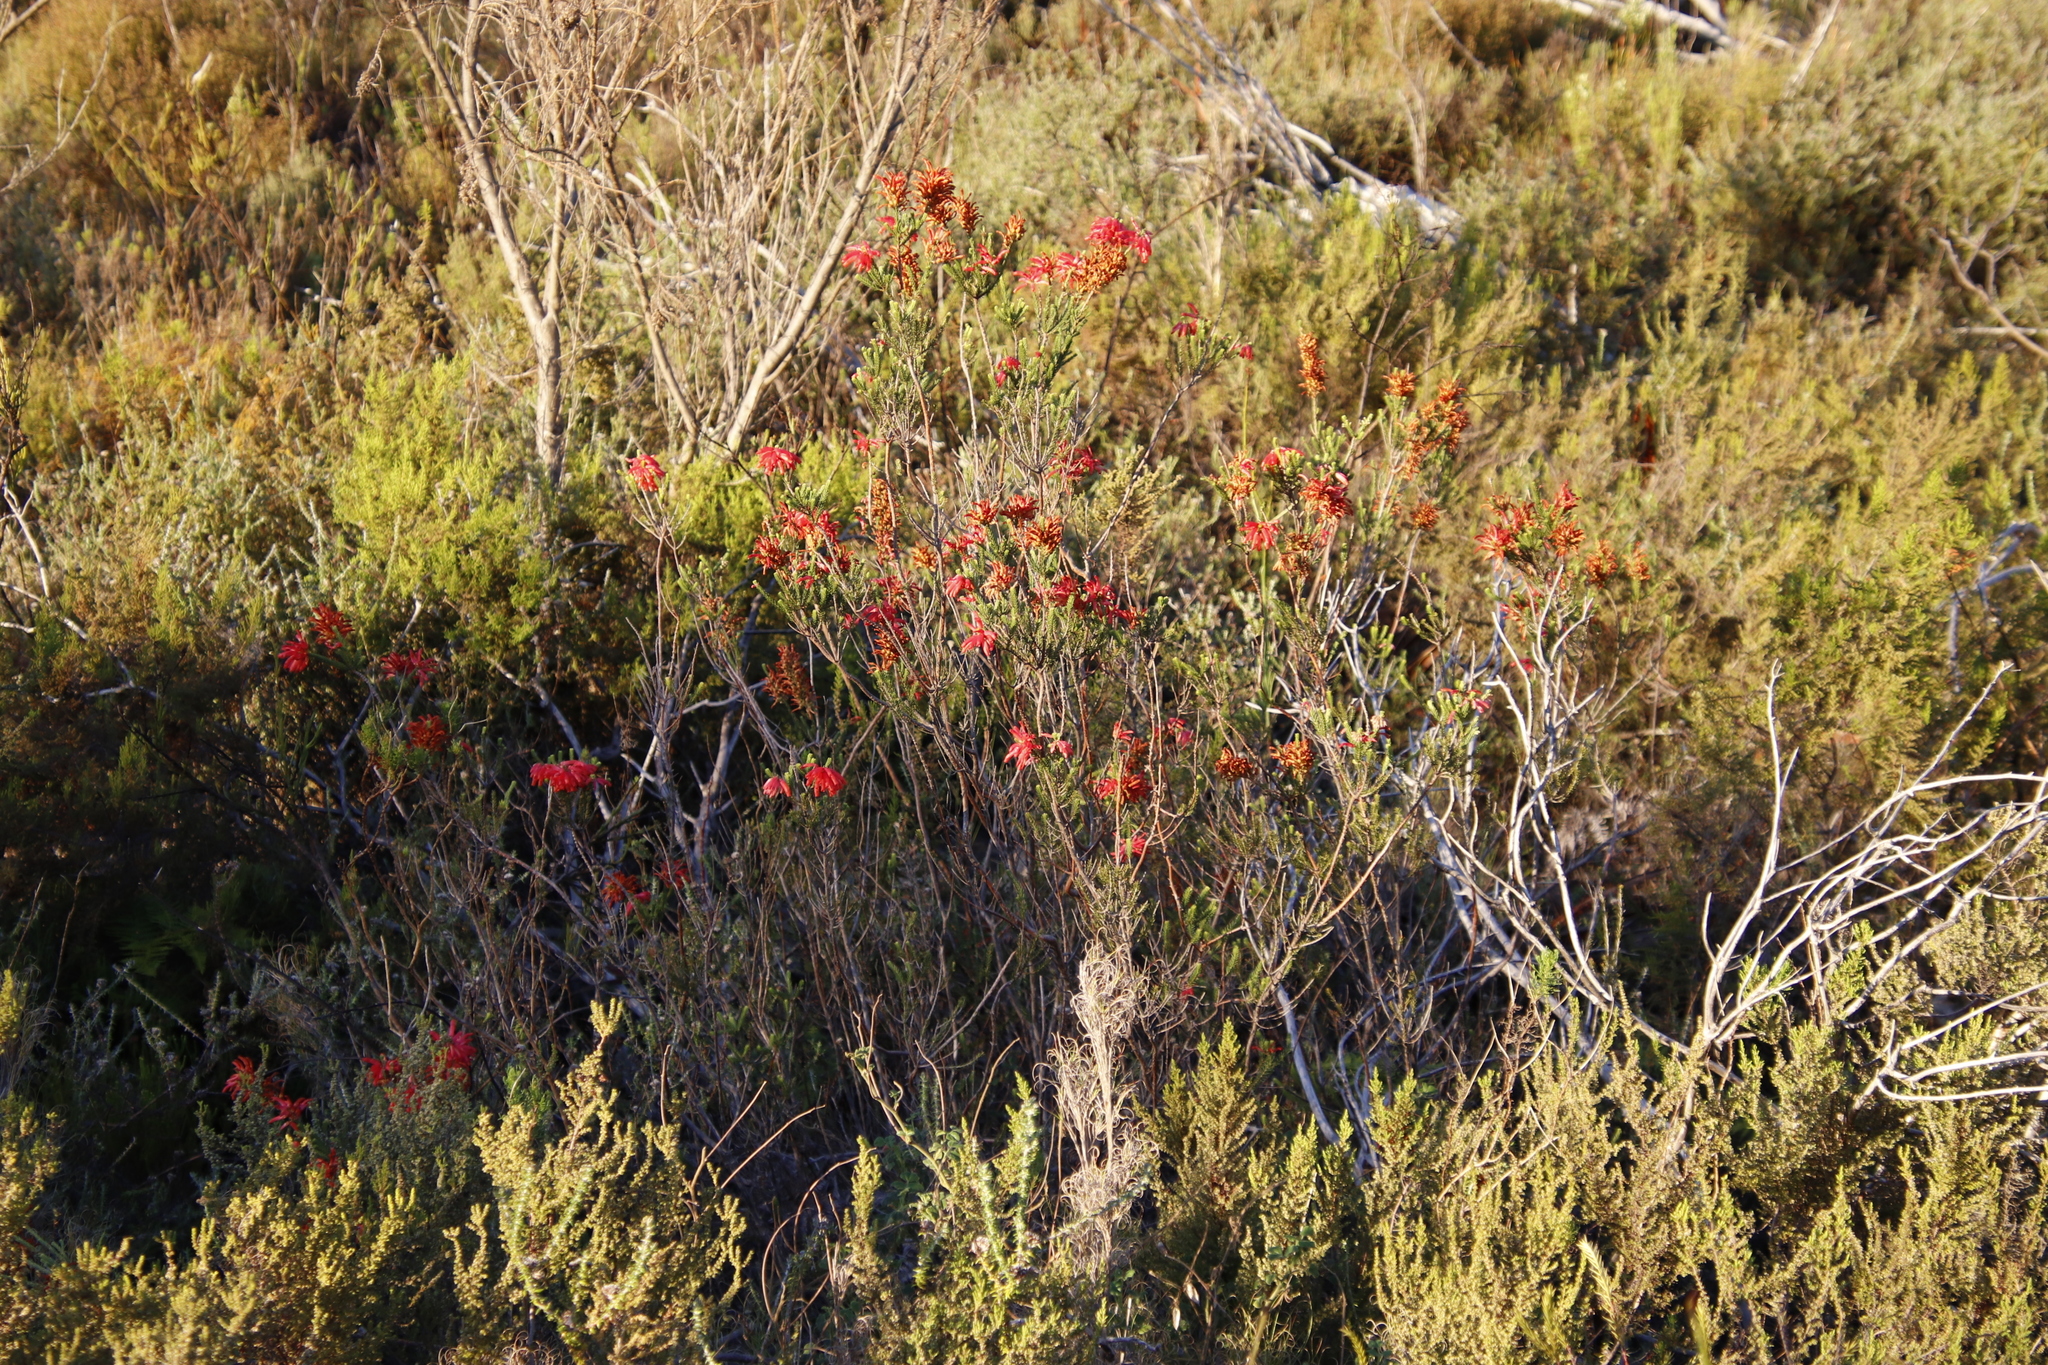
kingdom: Plantae
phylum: Tracheophyta
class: Magnoliopsida
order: Ericales
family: Ericaceae
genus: Erica
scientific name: Erica mammosa
